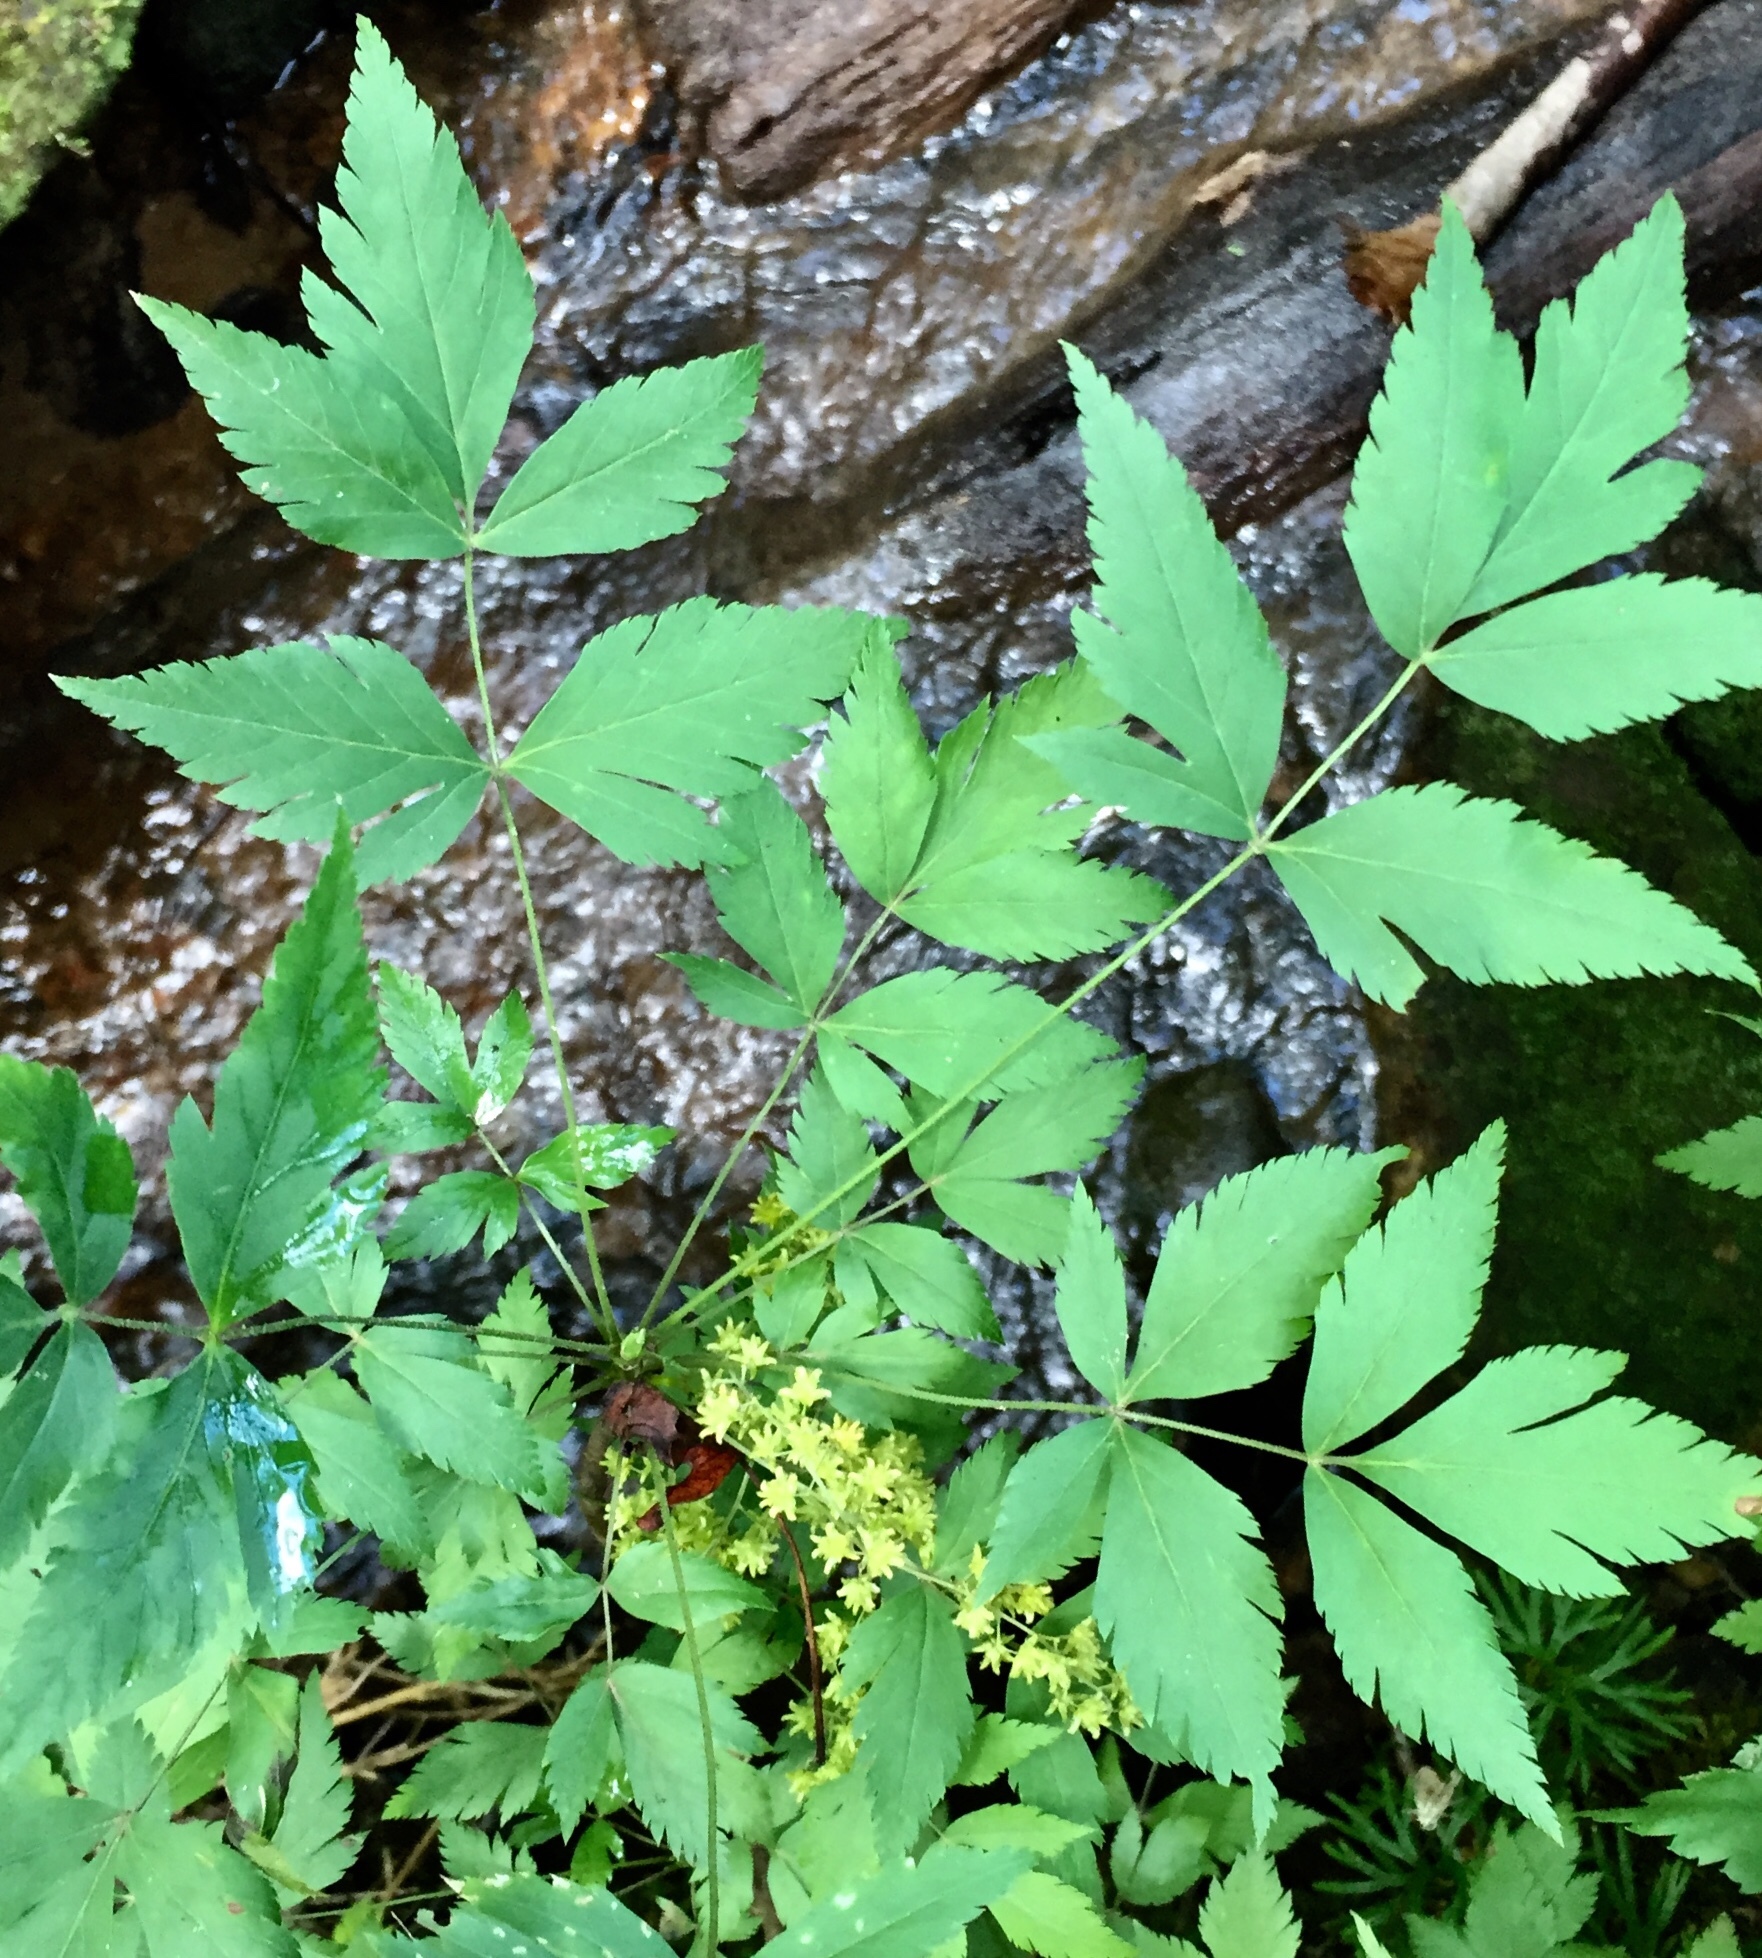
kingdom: Plantae
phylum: Tracheophyta
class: Magnoliopsida
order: Ranunculales
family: Ranunculaceae
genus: Xanthorhiza
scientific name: Xanthorhiza simplicissima
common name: Yellowroot
